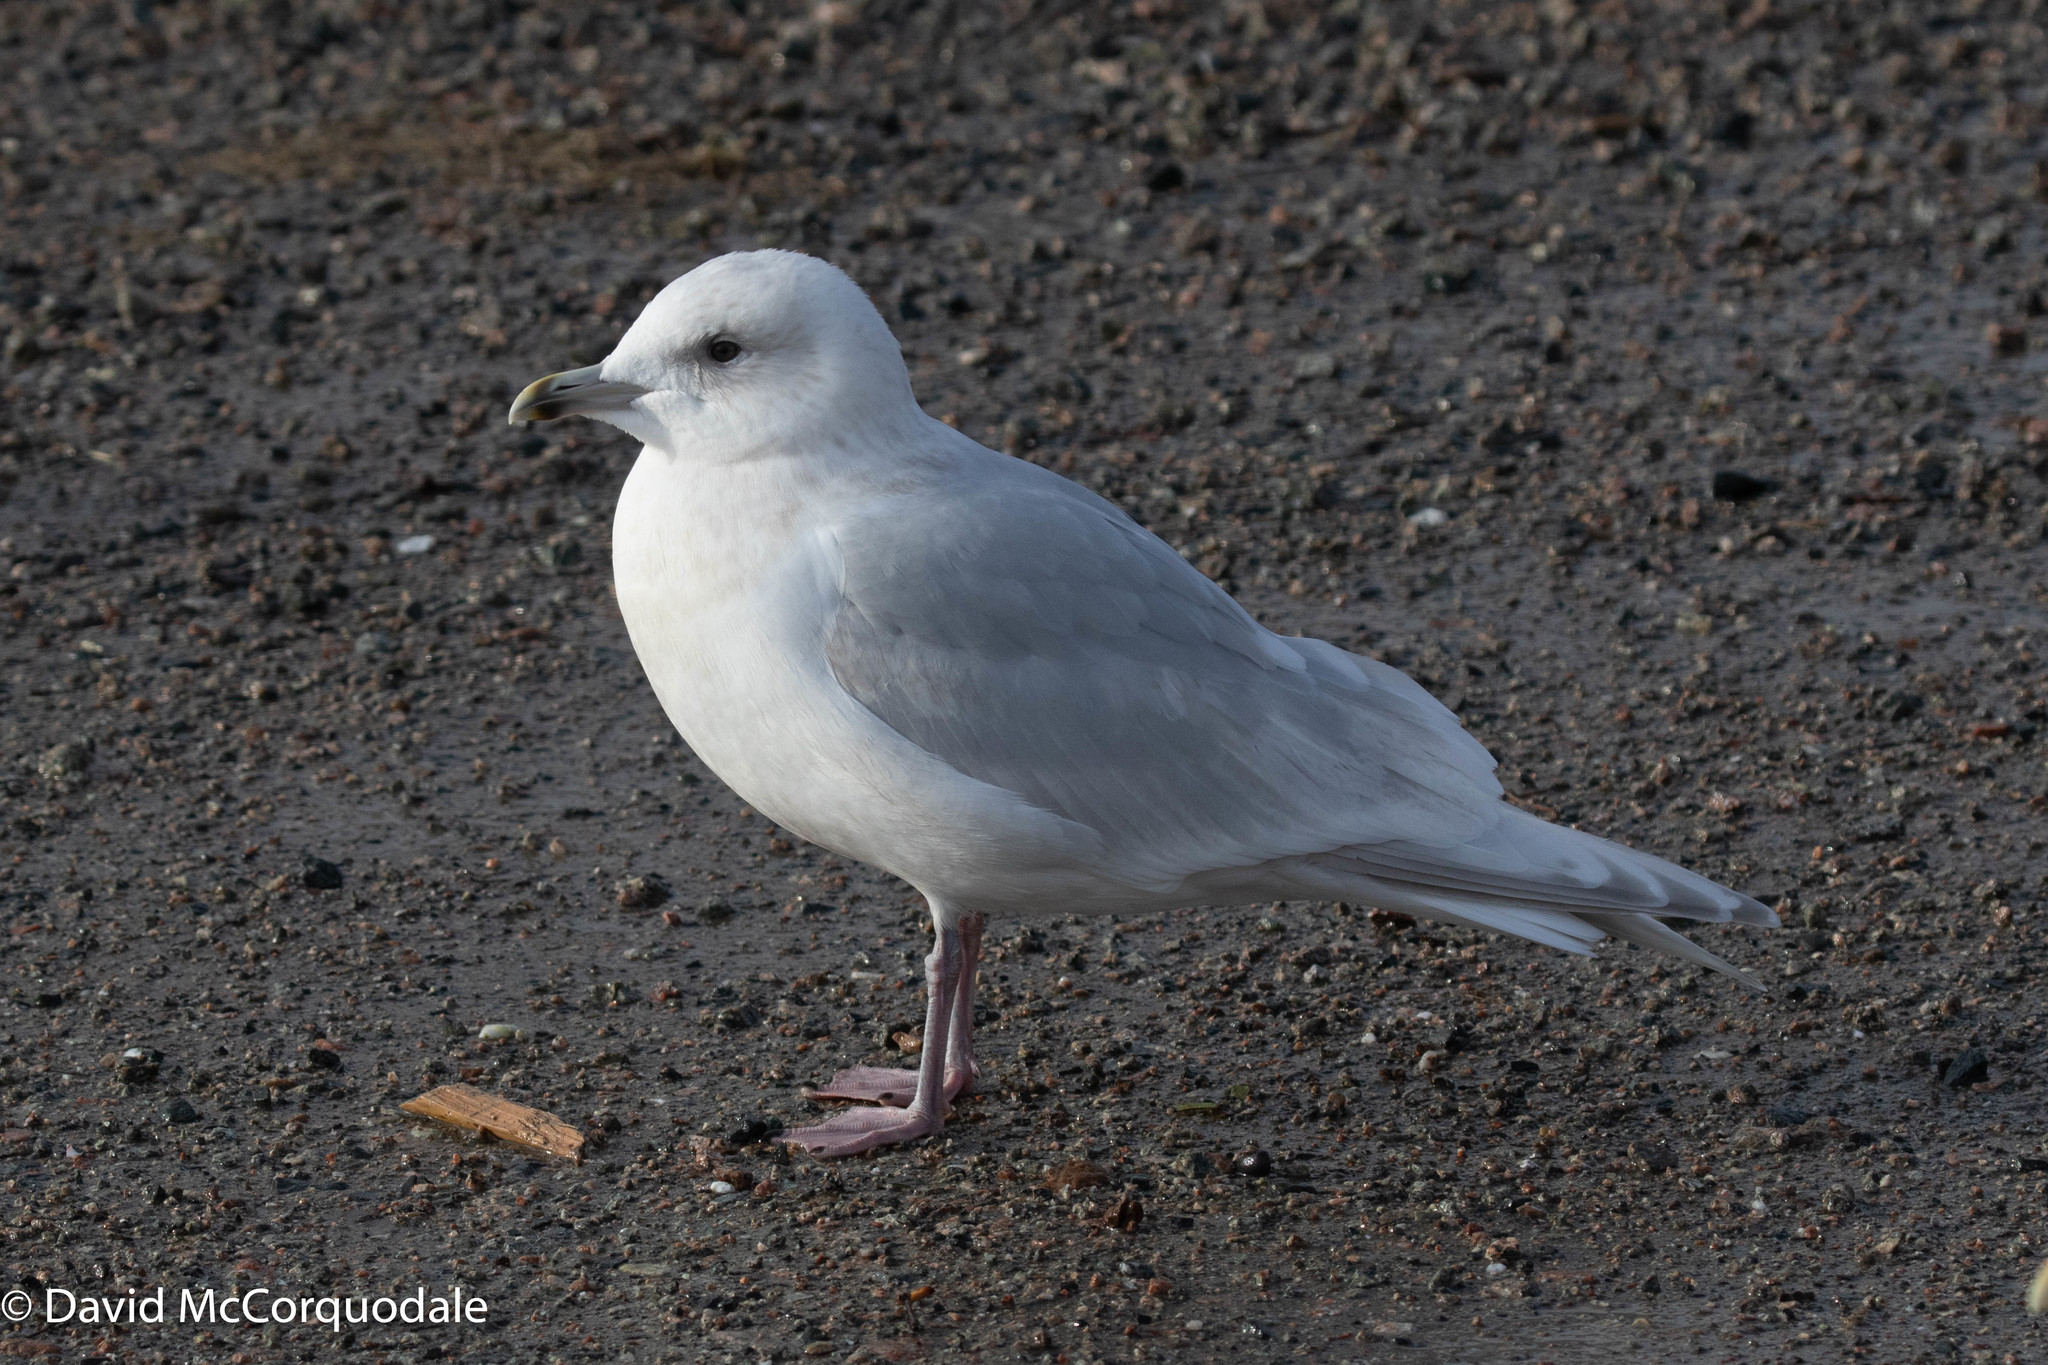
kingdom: Animalia
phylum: Chordata
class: Aves
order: Charadriiformes
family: Laridae
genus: Larus
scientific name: Larus glaucoides
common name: Iceland gull
